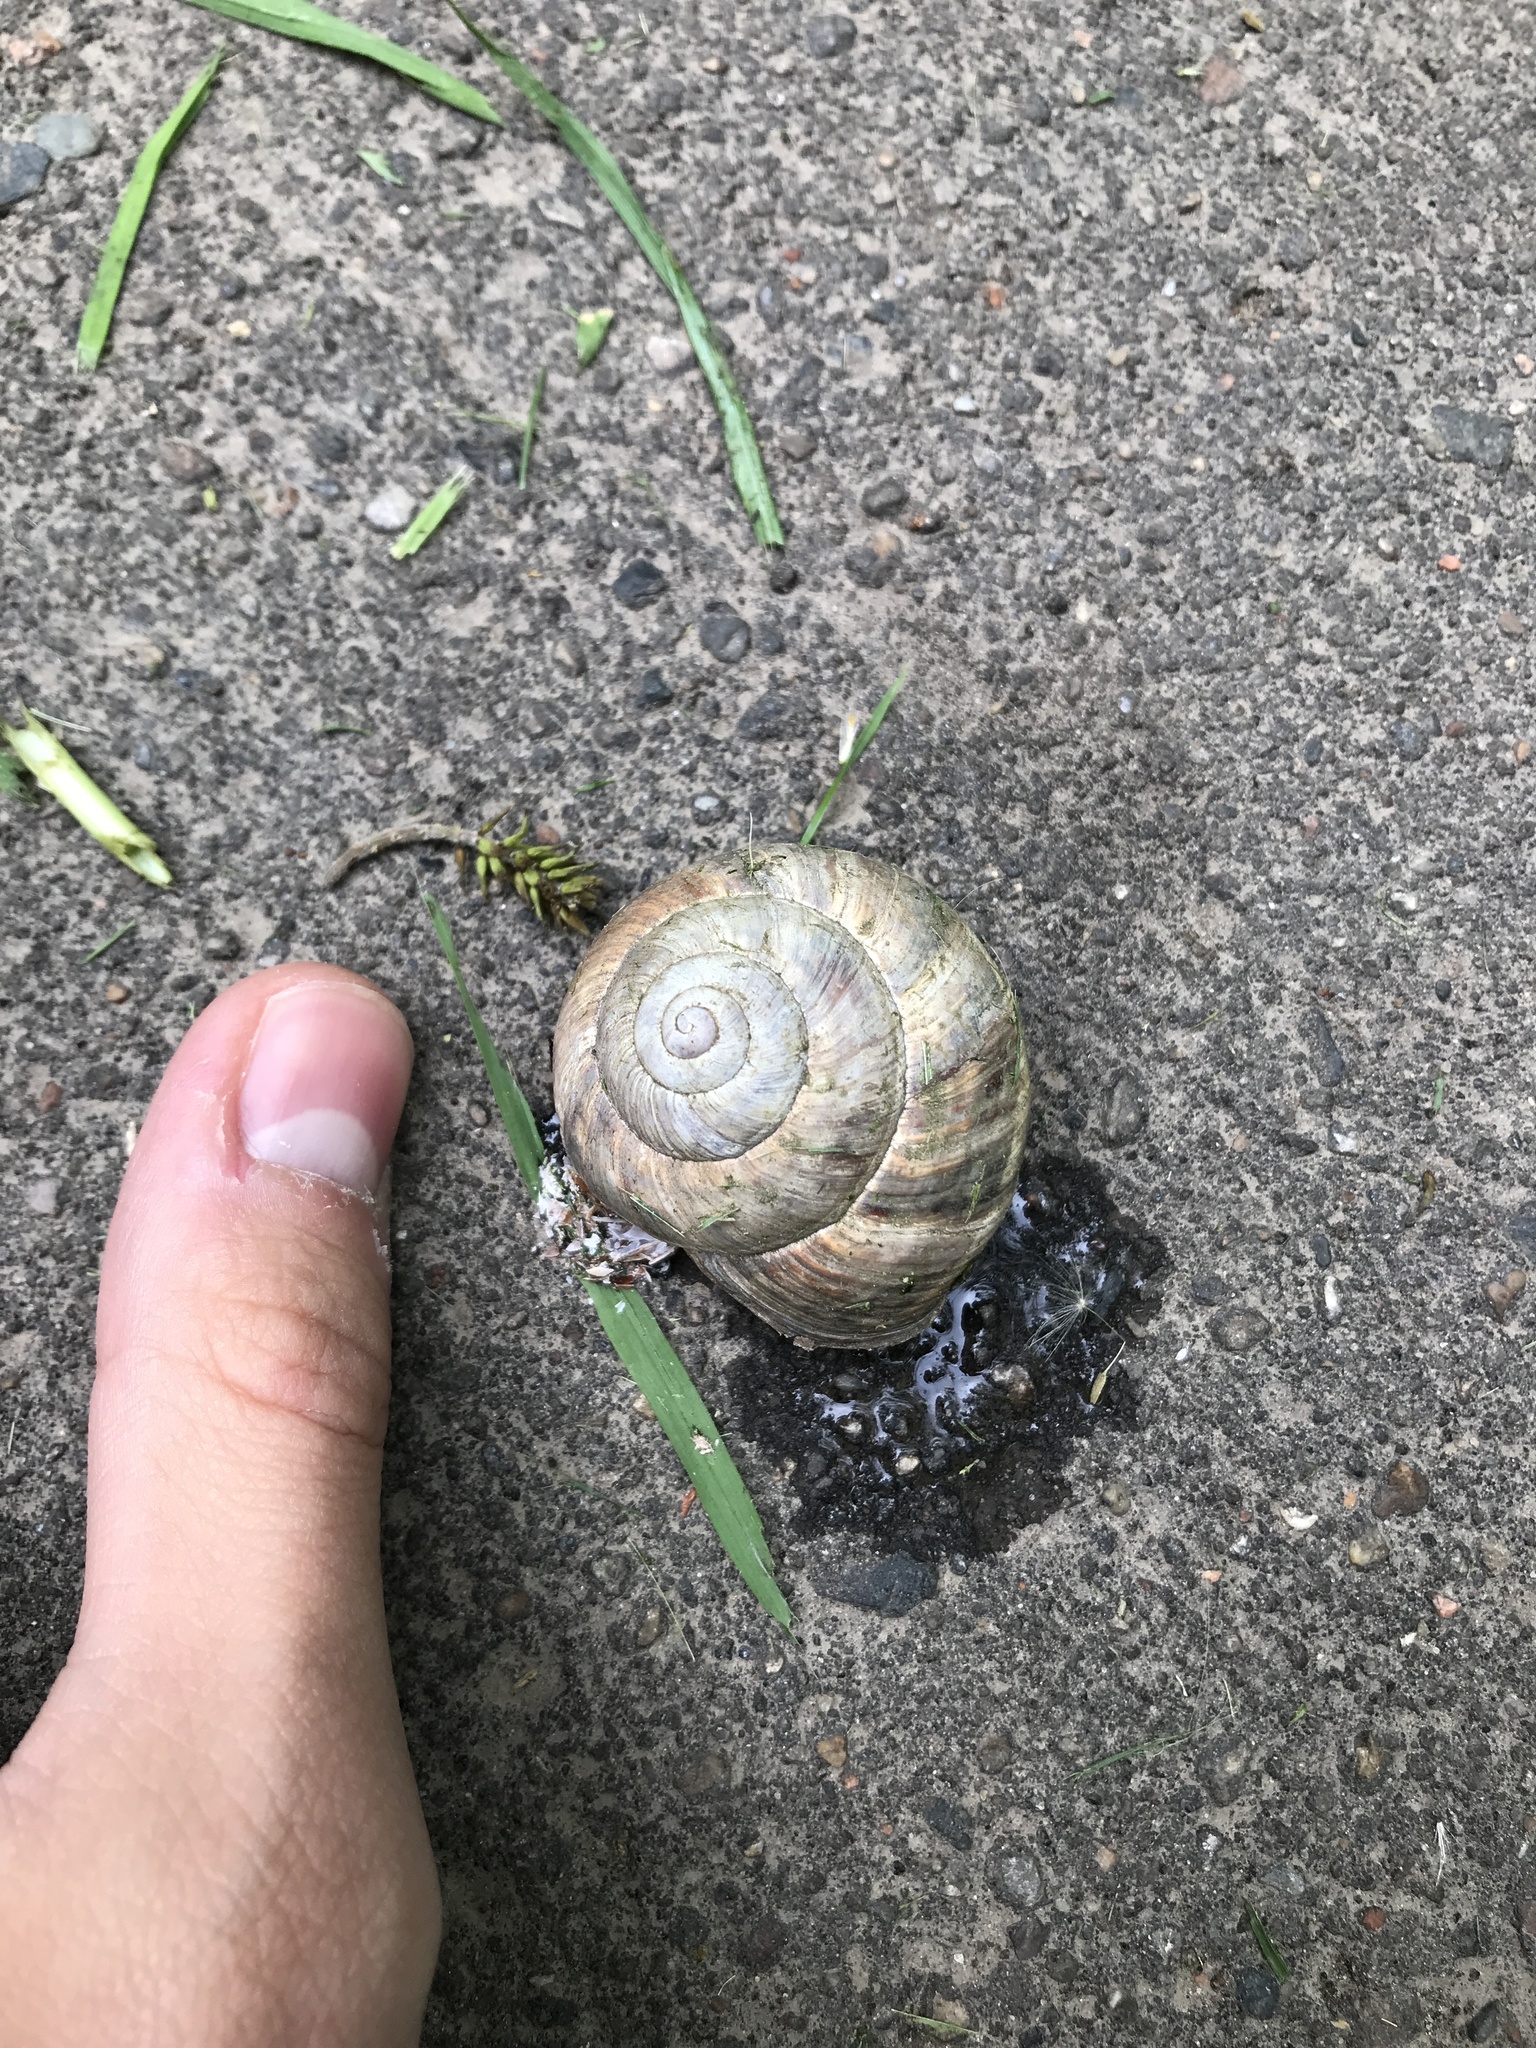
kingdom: Animalia
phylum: Mollusca
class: Gastropoda
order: Stylommatophora
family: Helicidae
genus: Helix
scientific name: Helix lucorum
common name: Turkish snail
